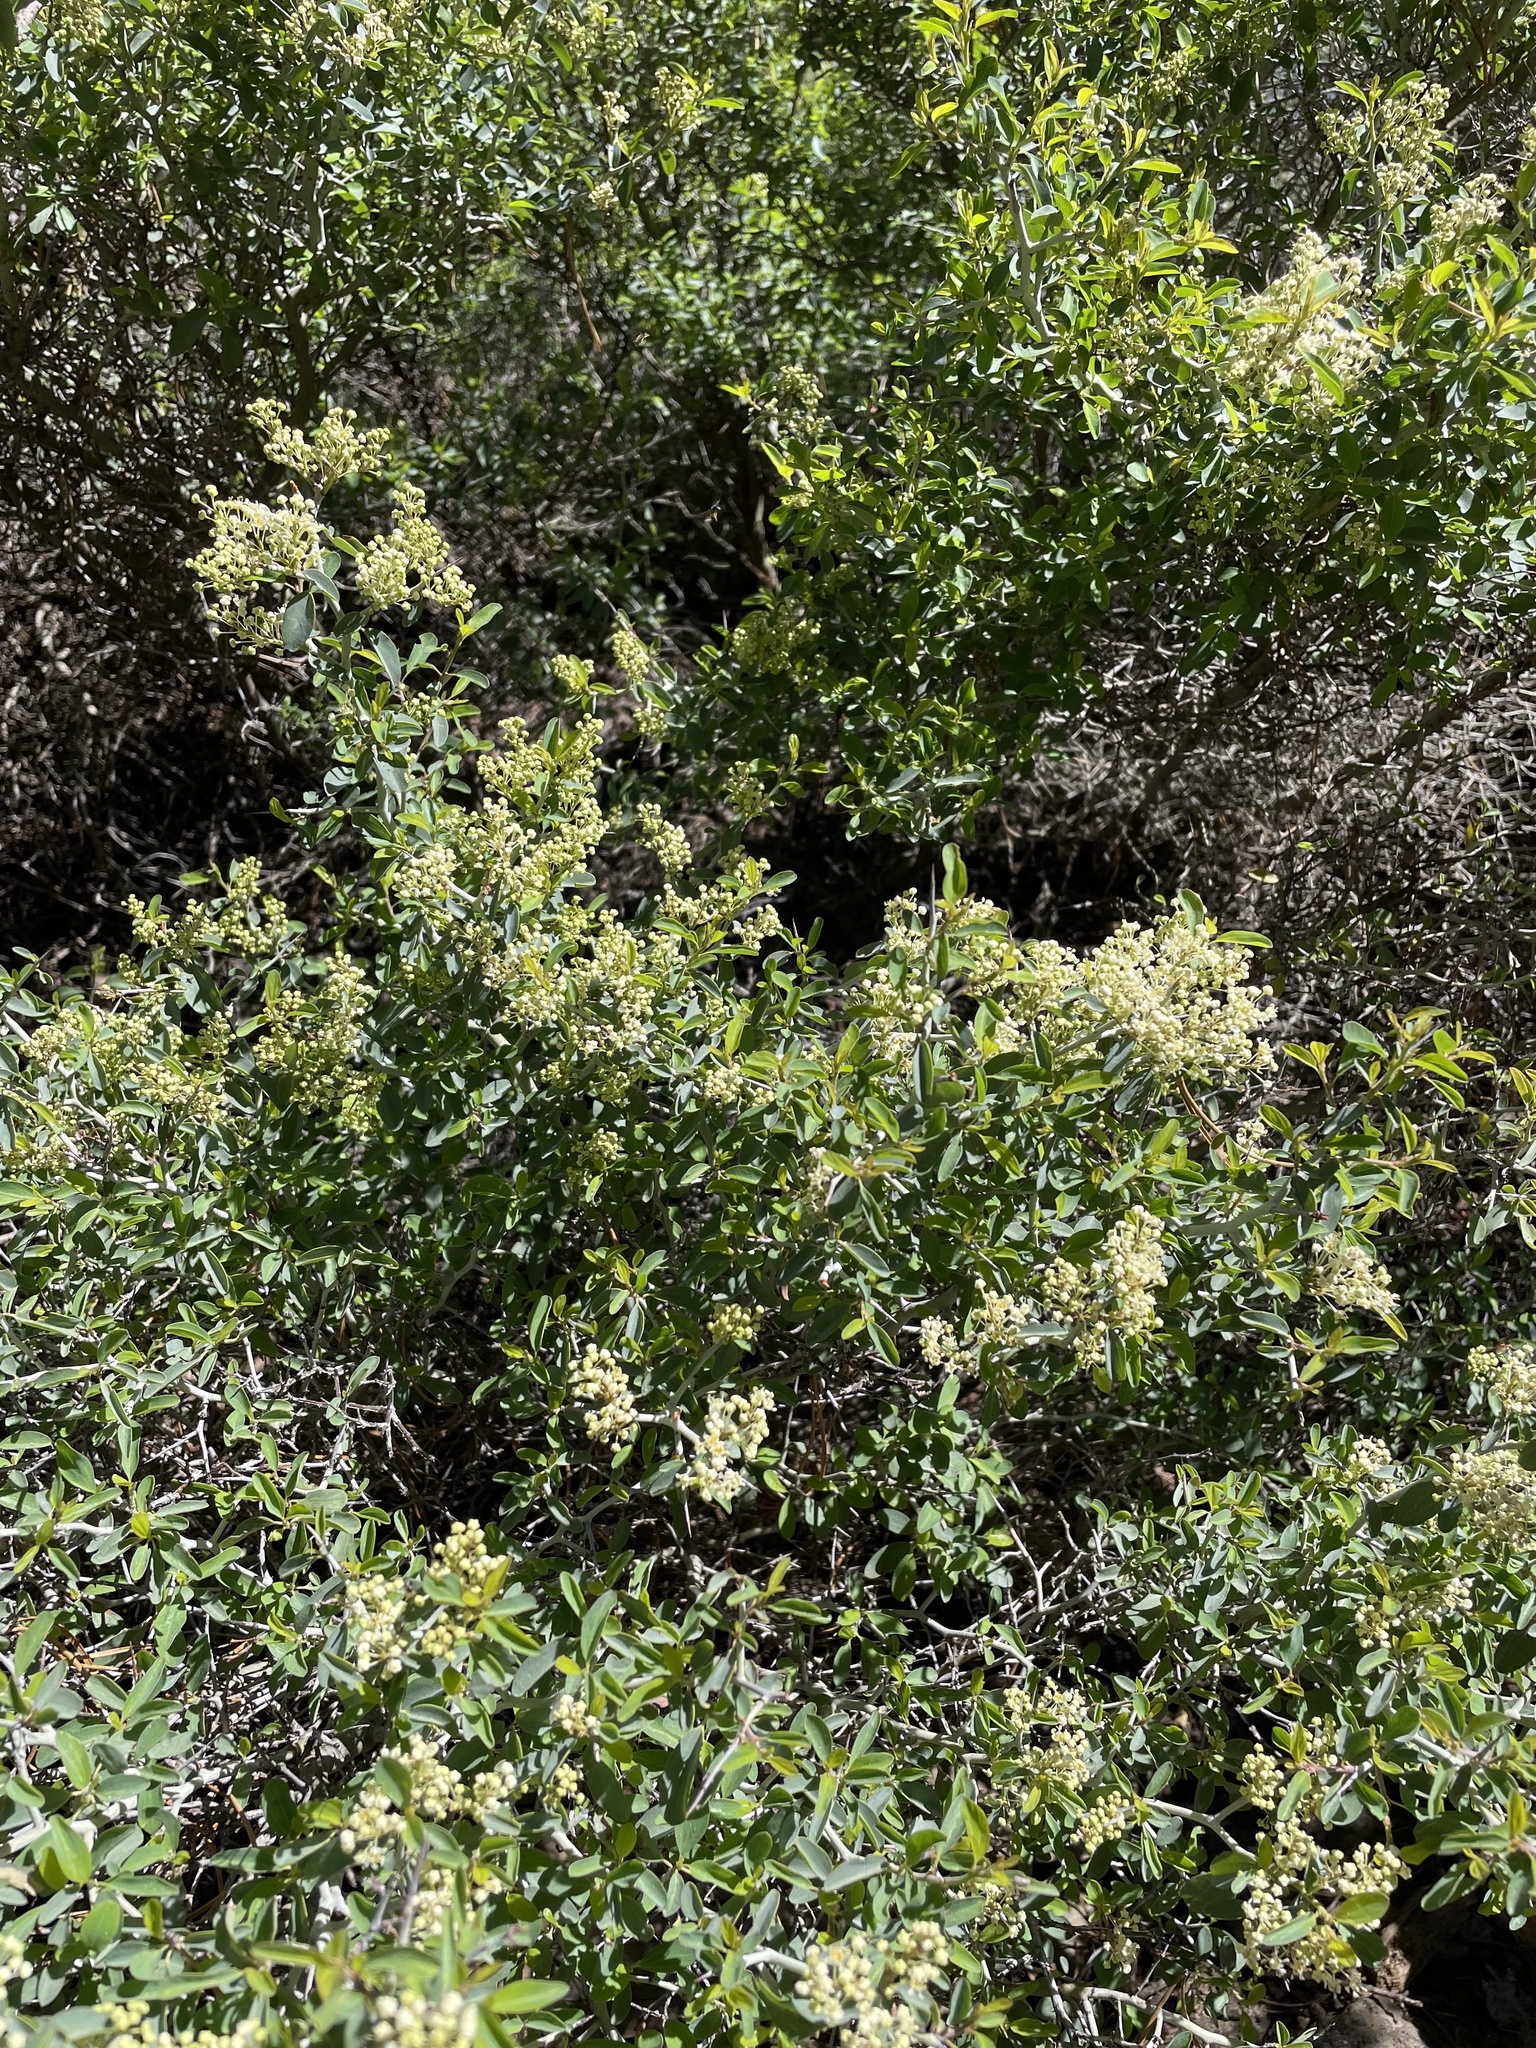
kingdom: Plantae
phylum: Tracheophyta
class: Magnoliopsida
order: Rosales
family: Rhamnaceae
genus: Ceanothus
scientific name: Ceanothus cordulatus
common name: Mountain whitethorn
